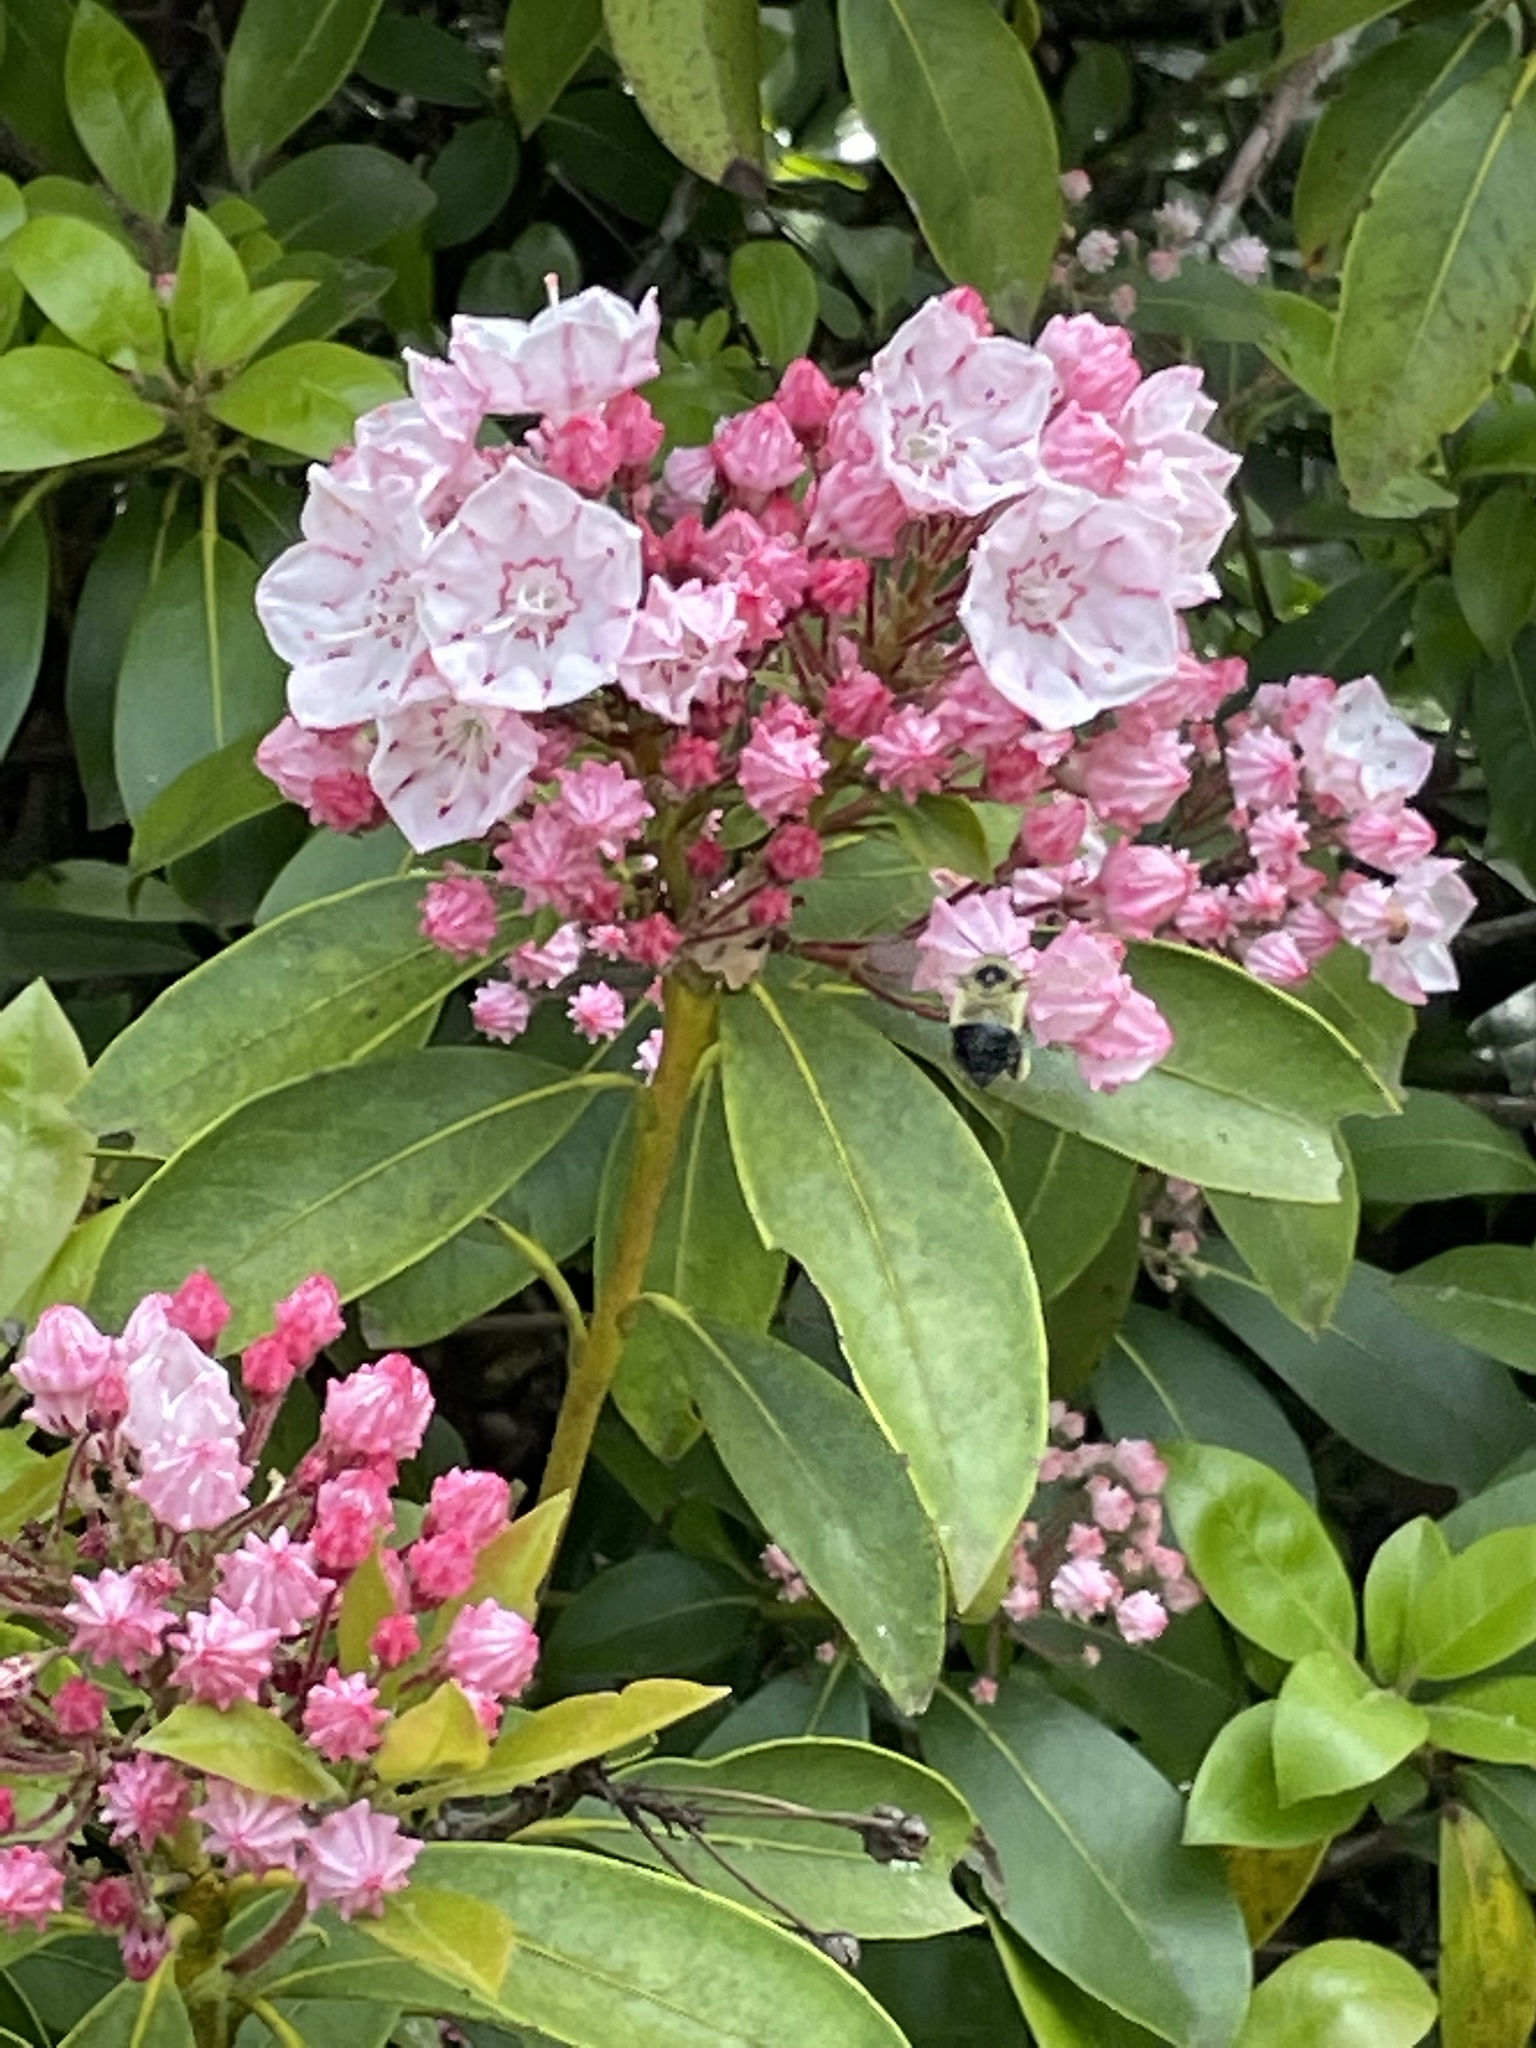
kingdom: Plantae
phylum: Tracheophyta
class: Magnoliopsida
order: Ericales
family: Ericaceae
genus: Kalmia
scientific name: Kalmia latifolia
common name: Mountain-laurel
